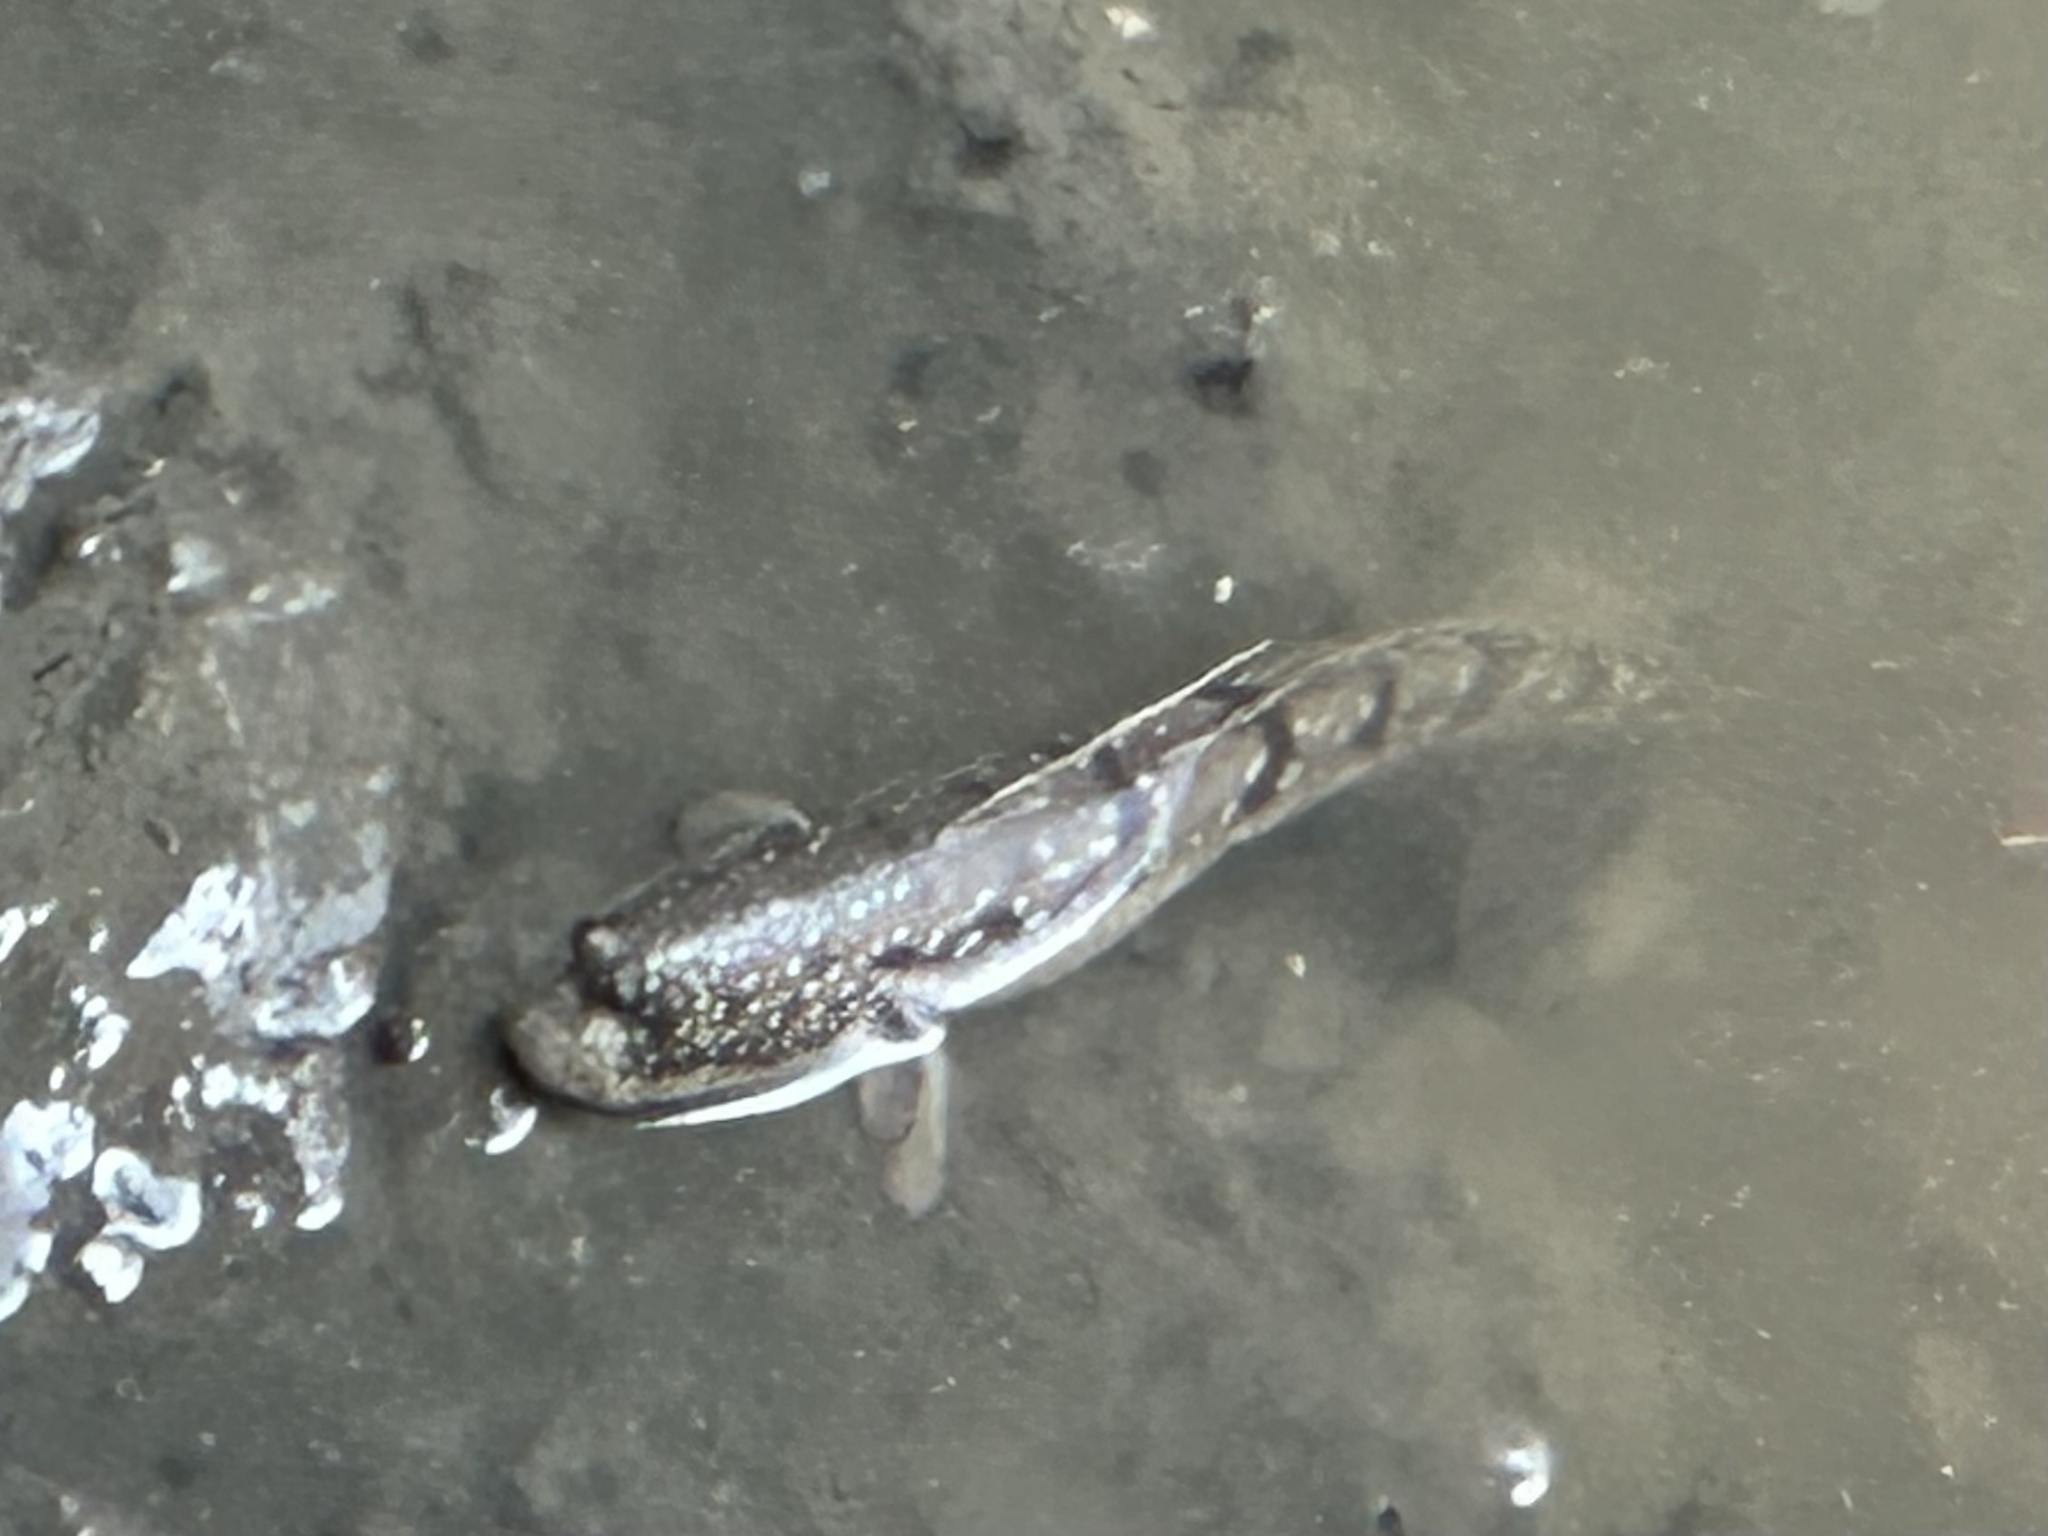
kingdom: Animalia
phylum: Chordata
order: Perciformes
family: Gobiidae
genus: Boleophthalmus
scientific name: Boleophthalmus boddarti
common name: Boddart's goggle-eyed goby
